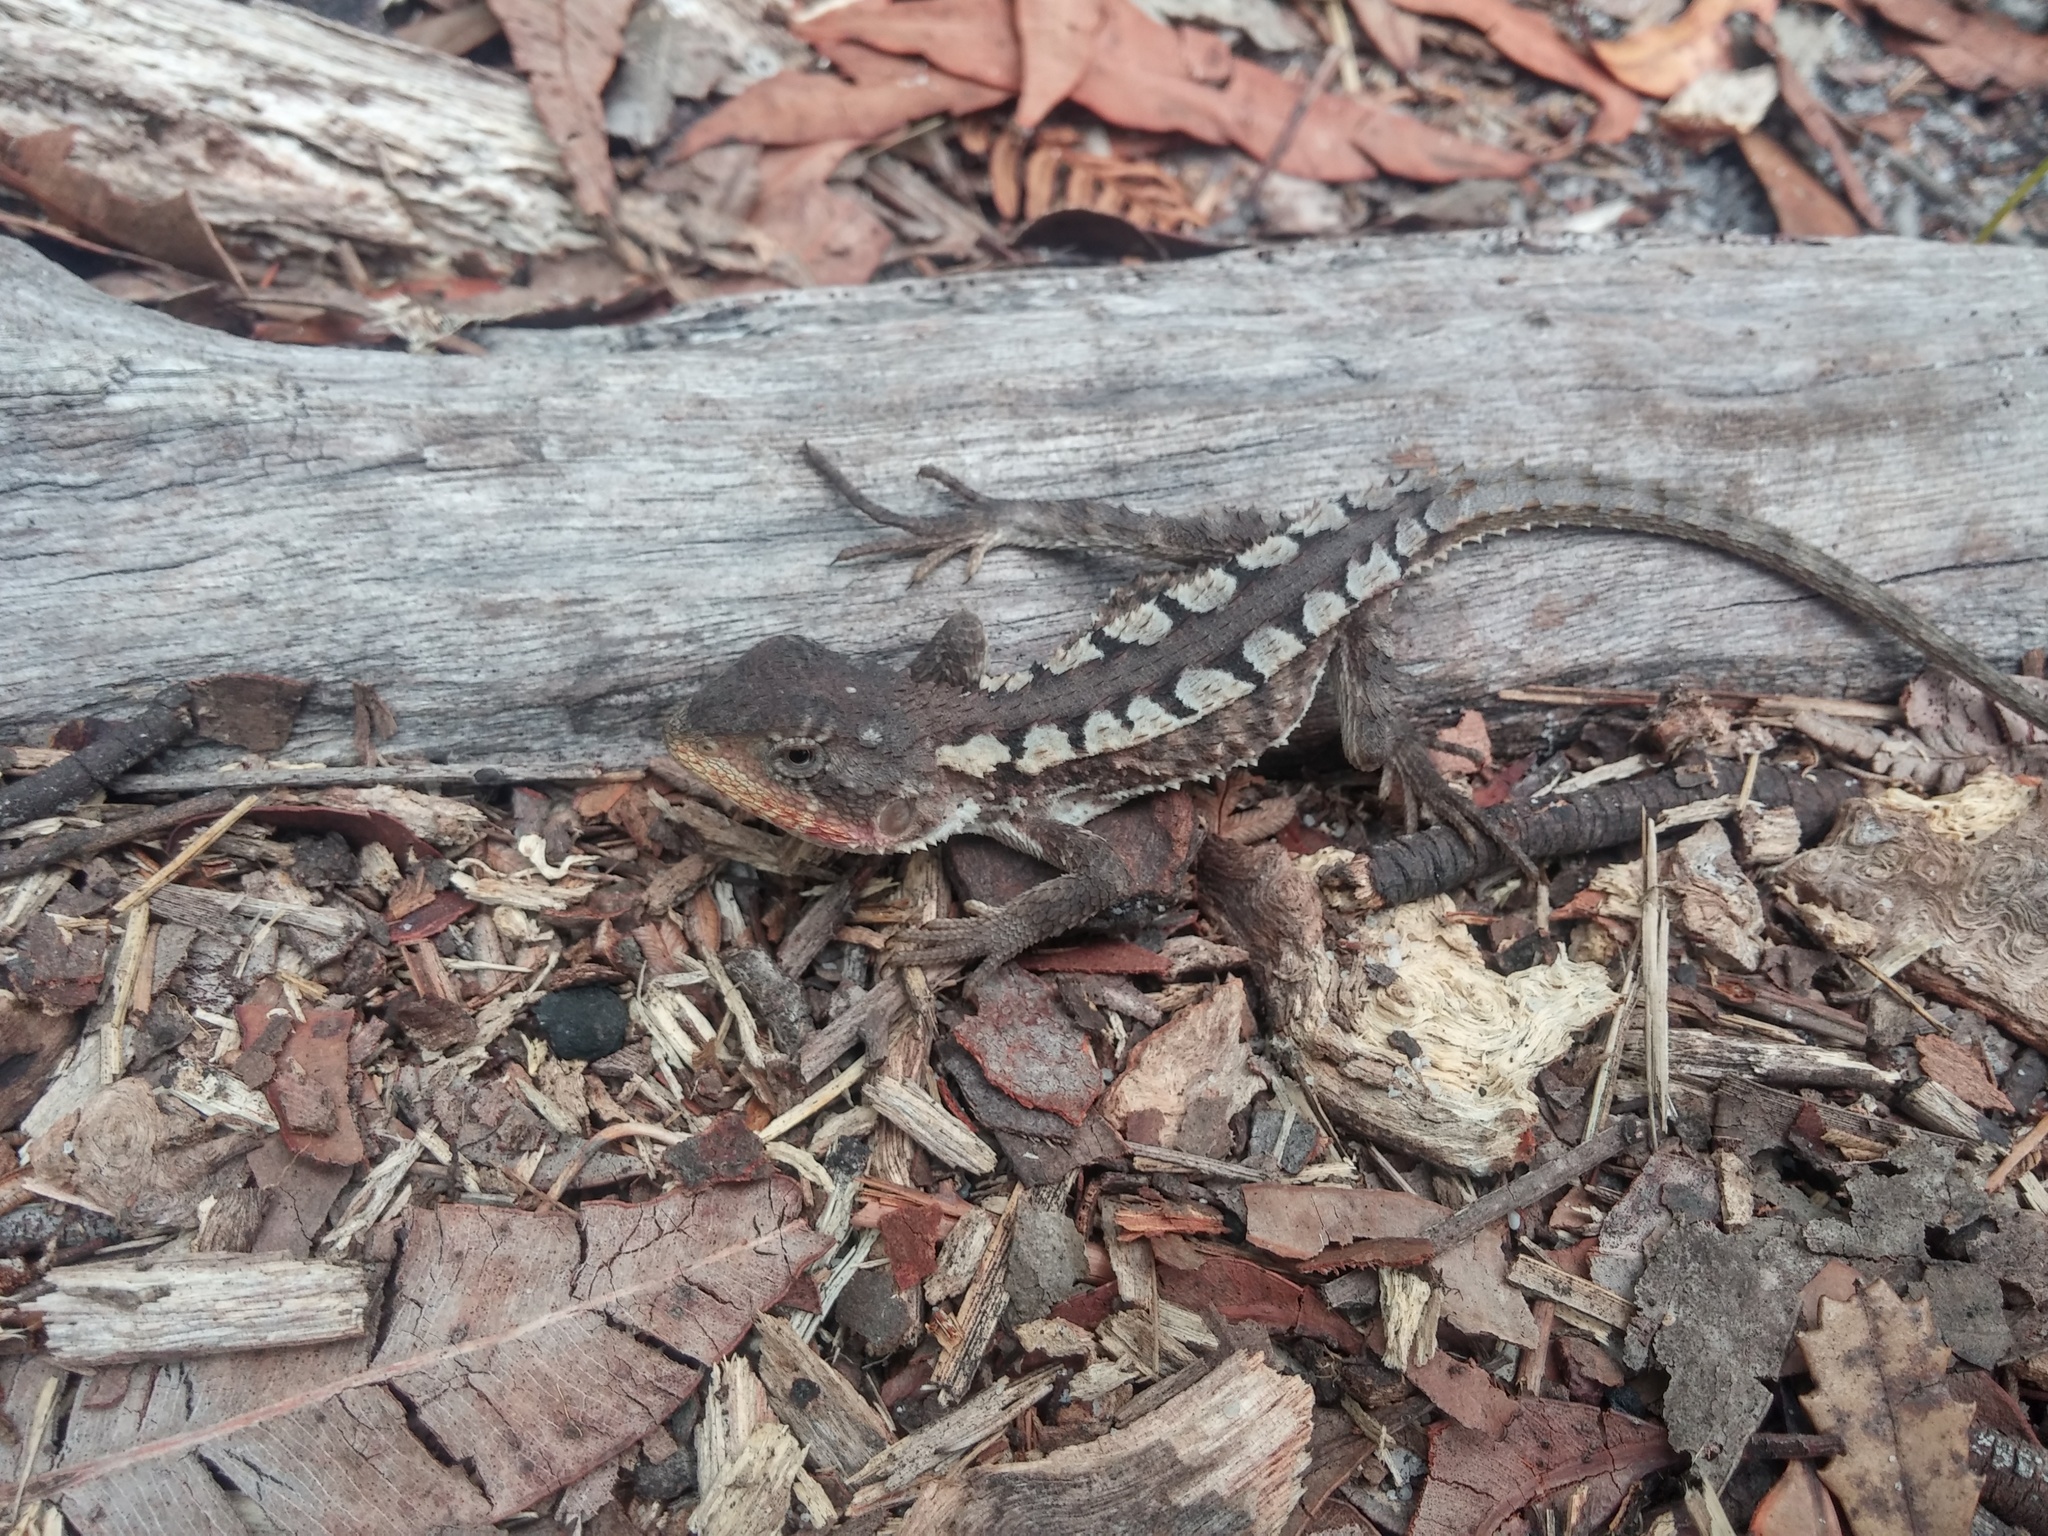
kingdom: Animalia
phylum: Chordata
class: Squamata
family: Agamidae
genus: Rankinia
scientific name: Rankinia diemensis
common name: Mountain dragon
